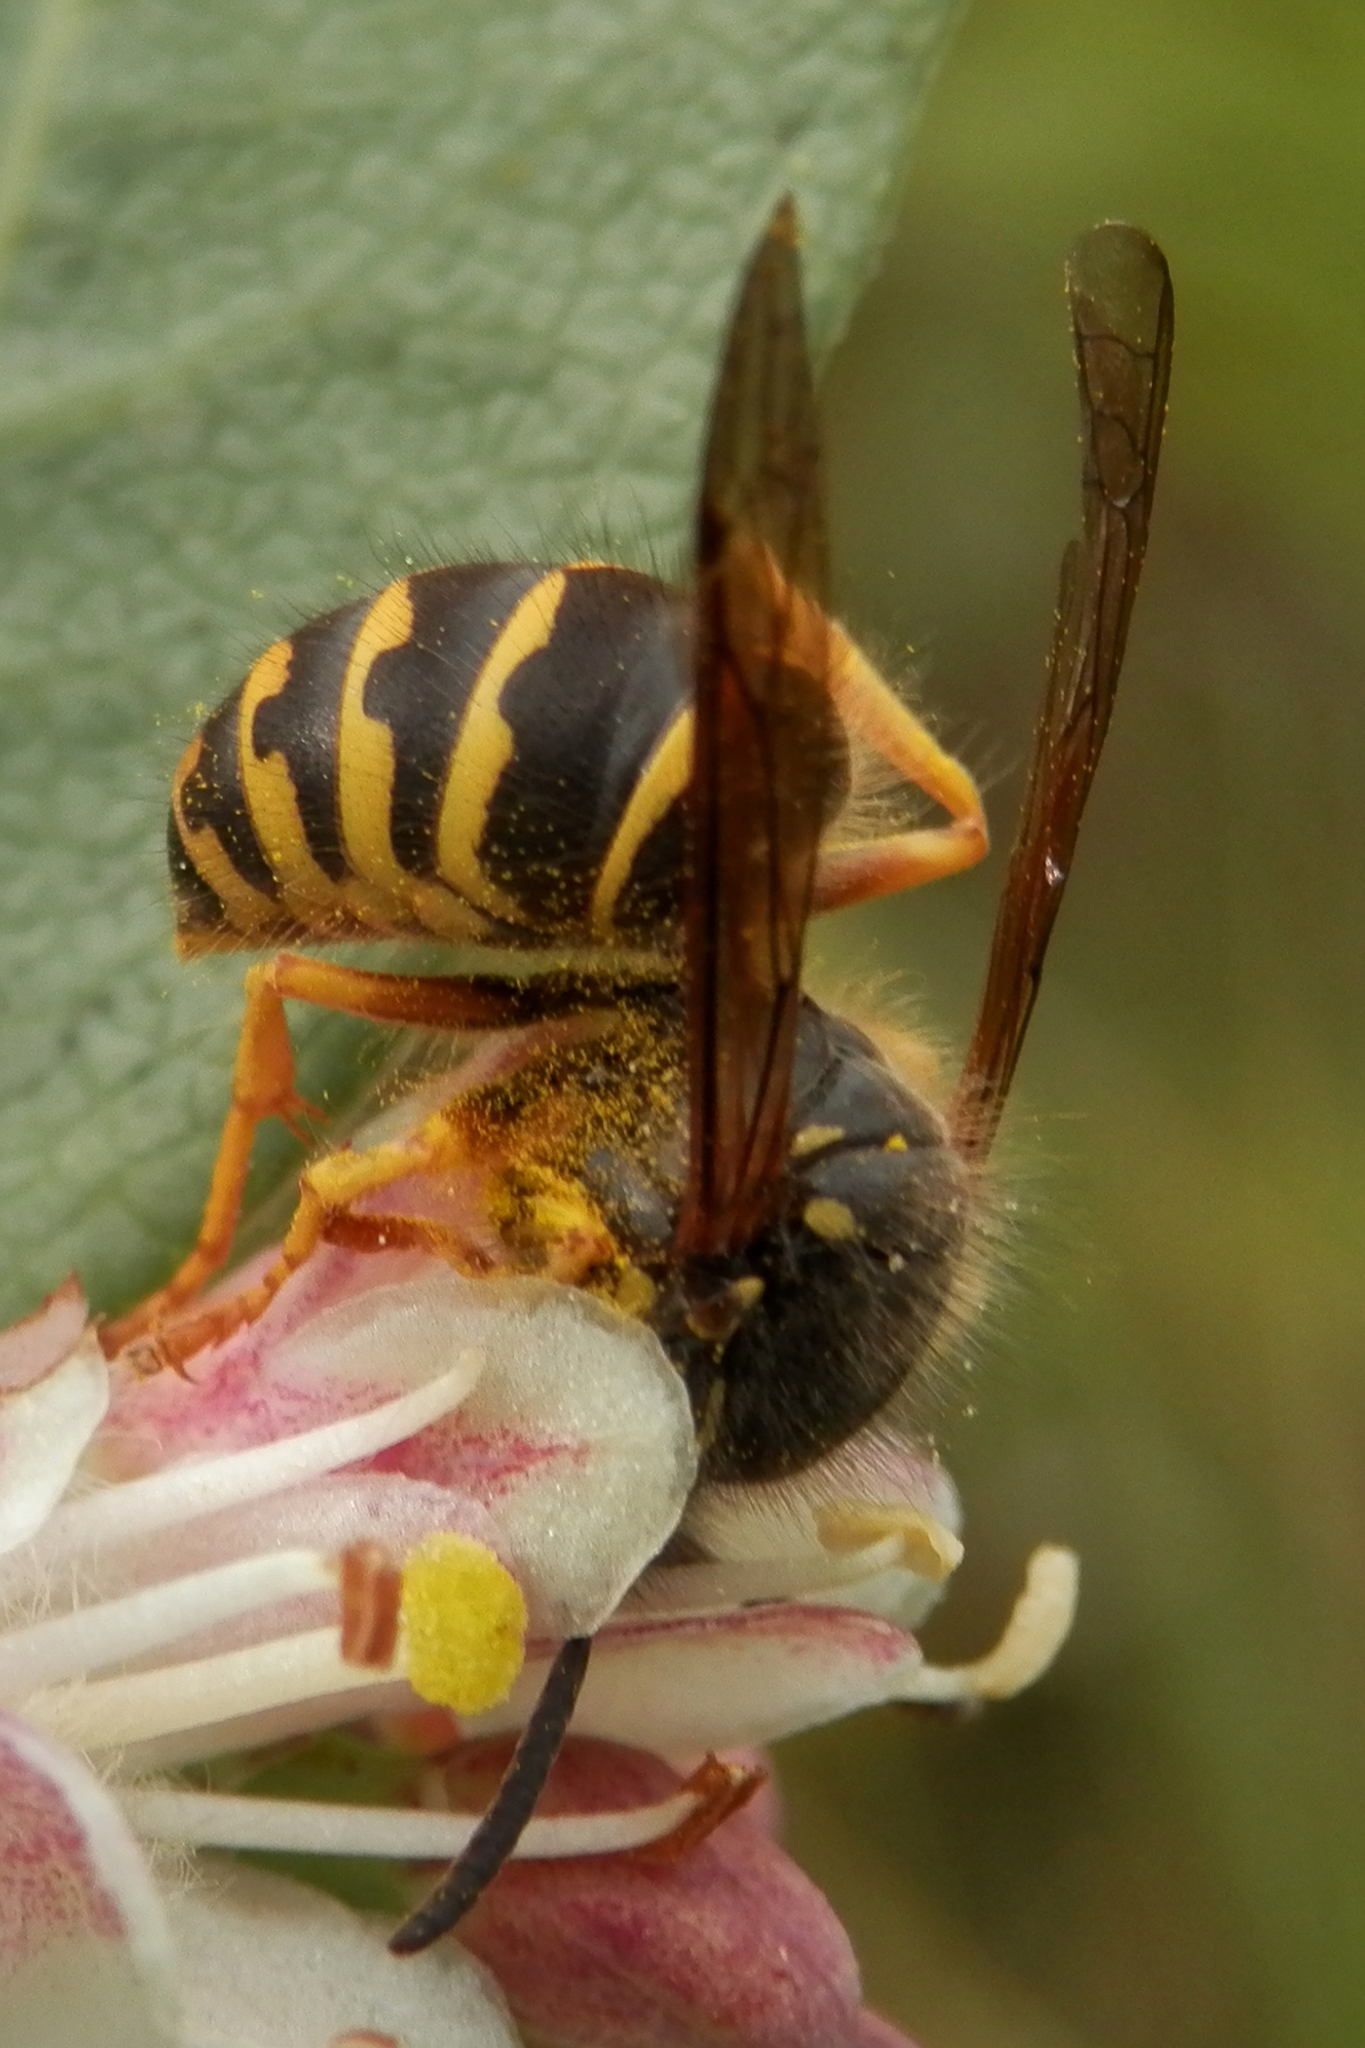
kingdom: Animalia
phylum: Arthropoda
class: Insecta
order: Hymenoptera
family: Vespidae
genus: Dolichovespula
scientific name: Dolichovespula arenaria
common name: Aerial yellowjacket
